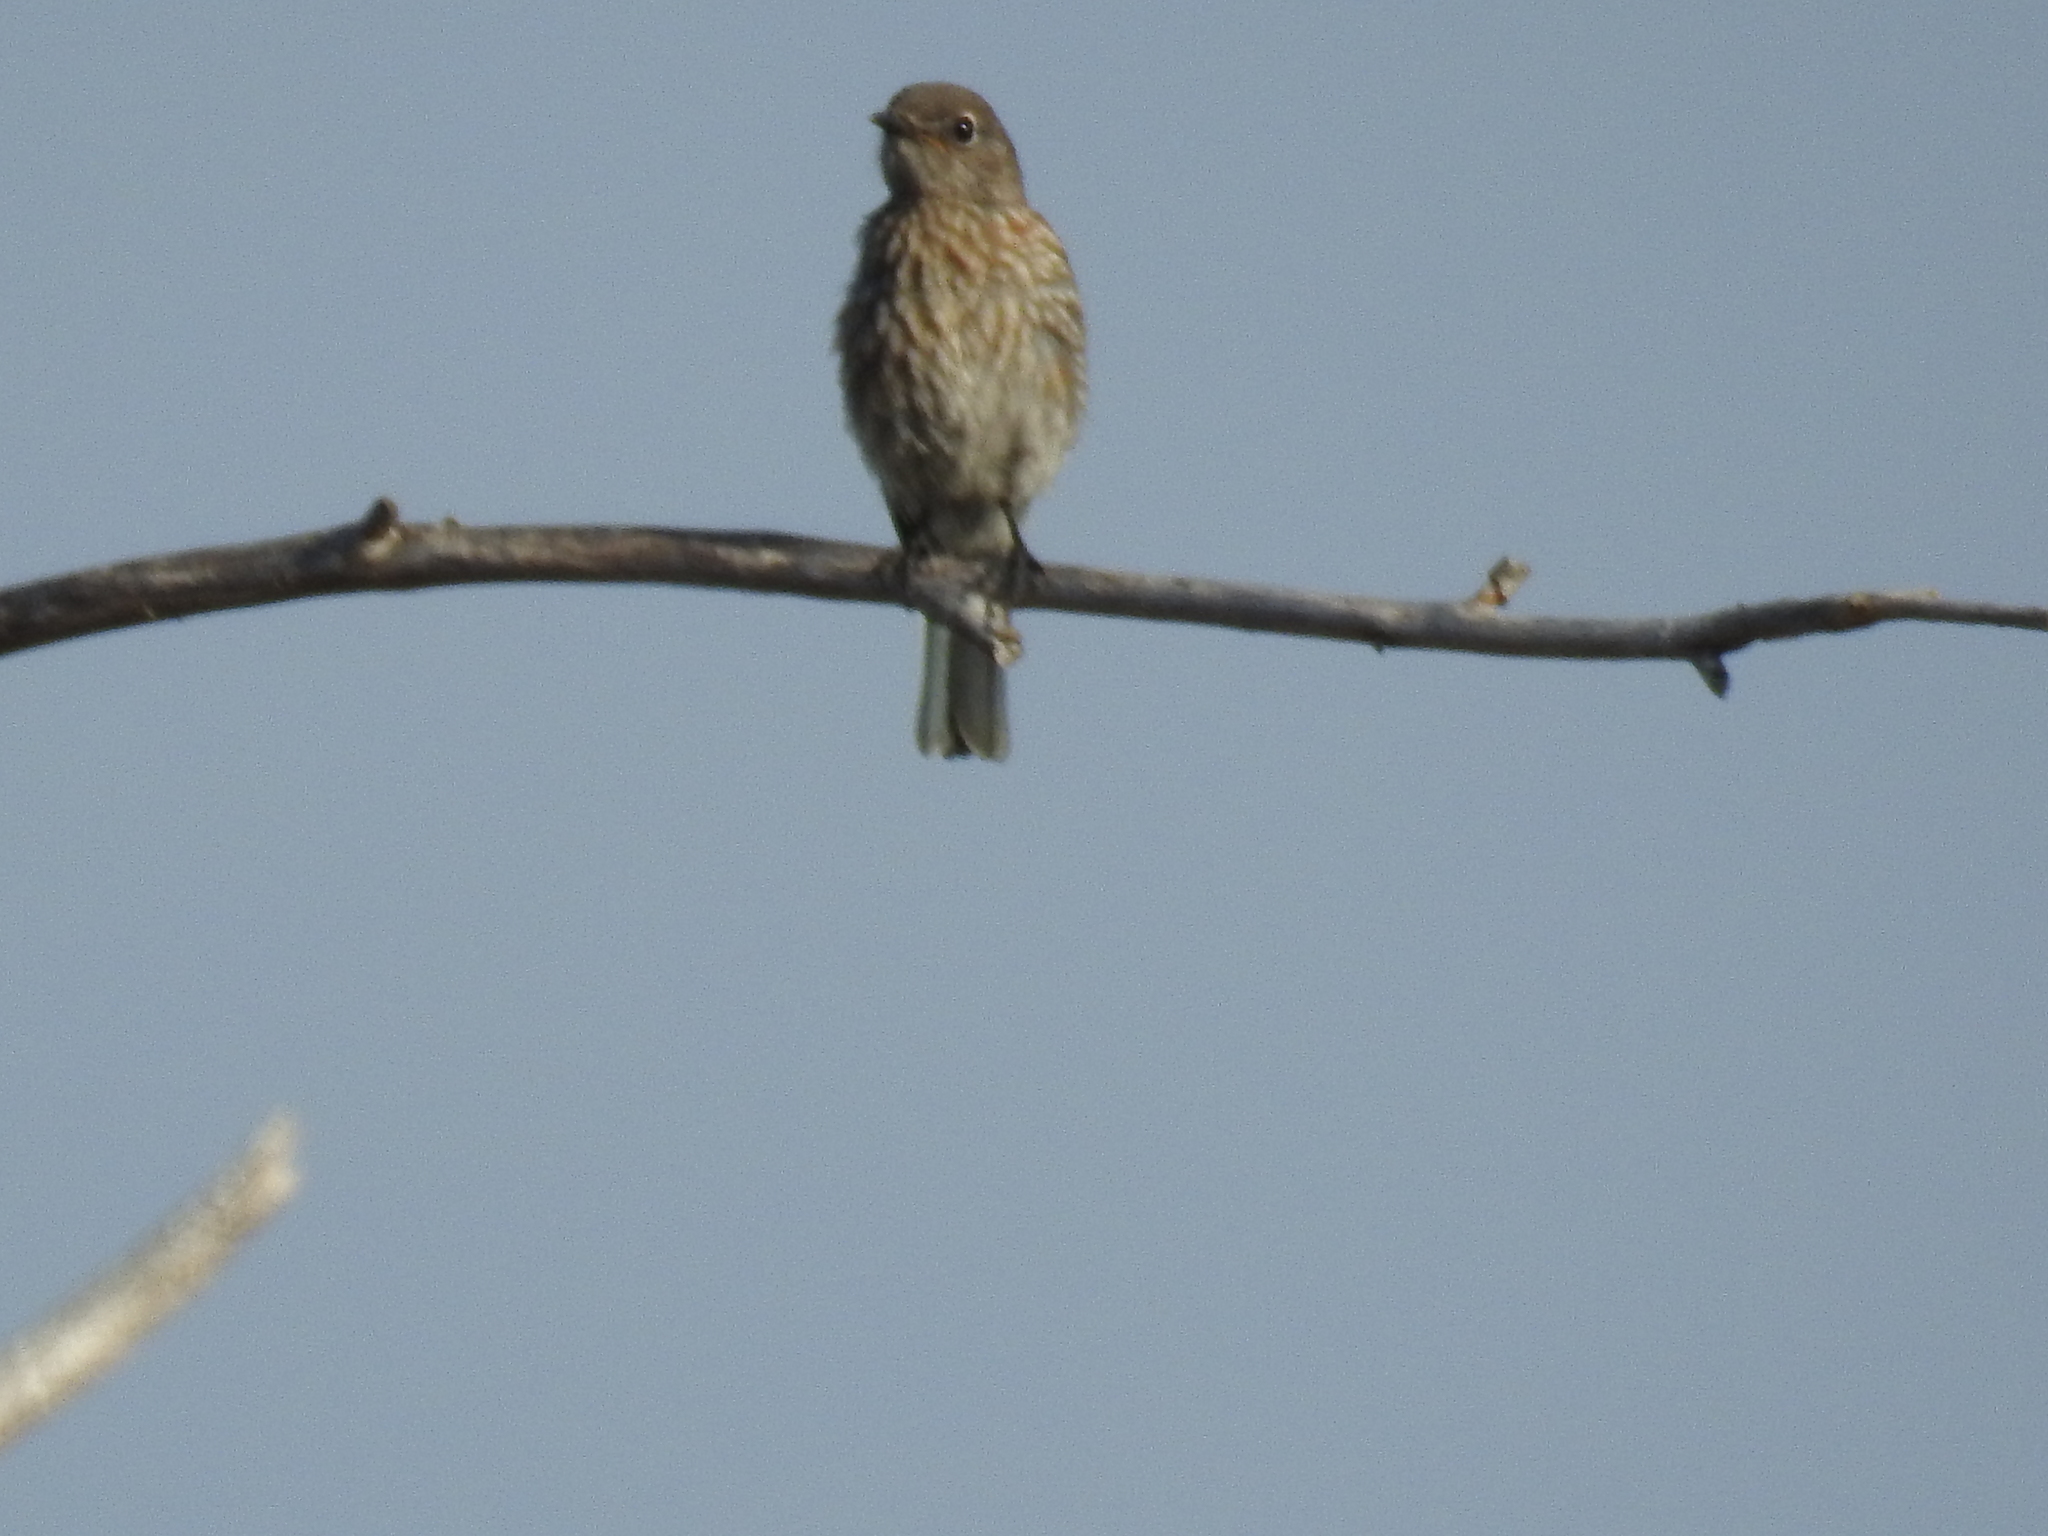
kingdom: Animalia
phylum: Chordata
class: Aves
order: Passeriformes
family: Turdidae
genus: Sialia
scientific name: Sialia mexicana
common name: Western bluebird
